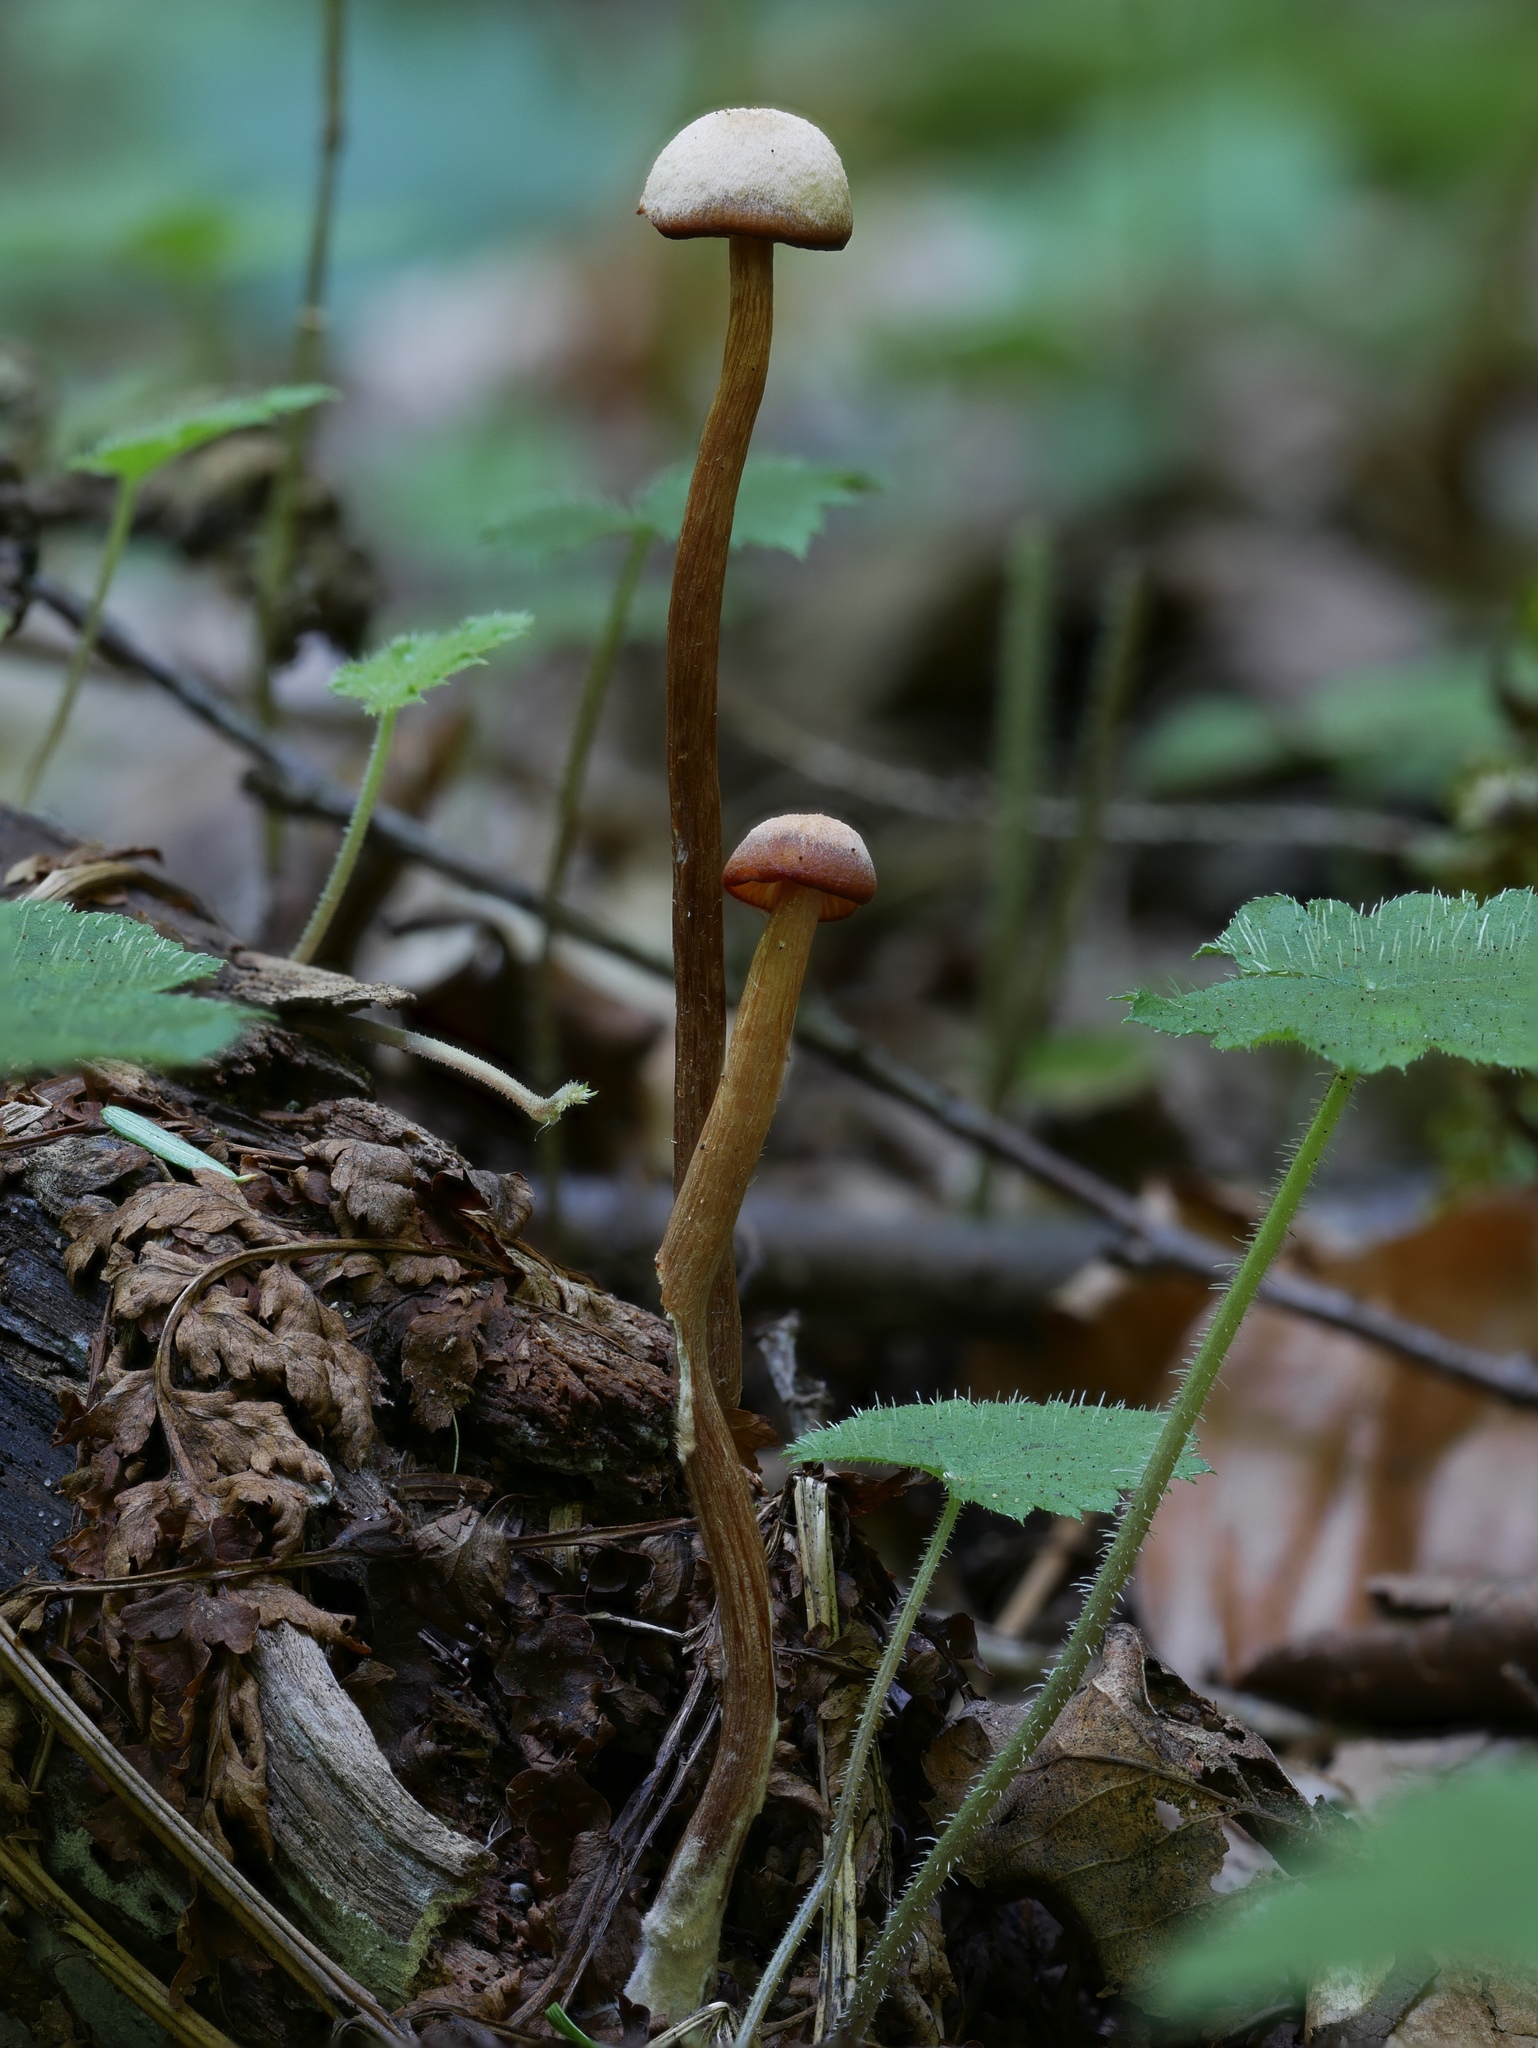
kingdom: Fungi
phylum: Basidiomycota
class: Agaricomycetes
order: Agaricales
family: Hydnangiaceae
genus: Laccaria
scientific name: Laccaria striatula
